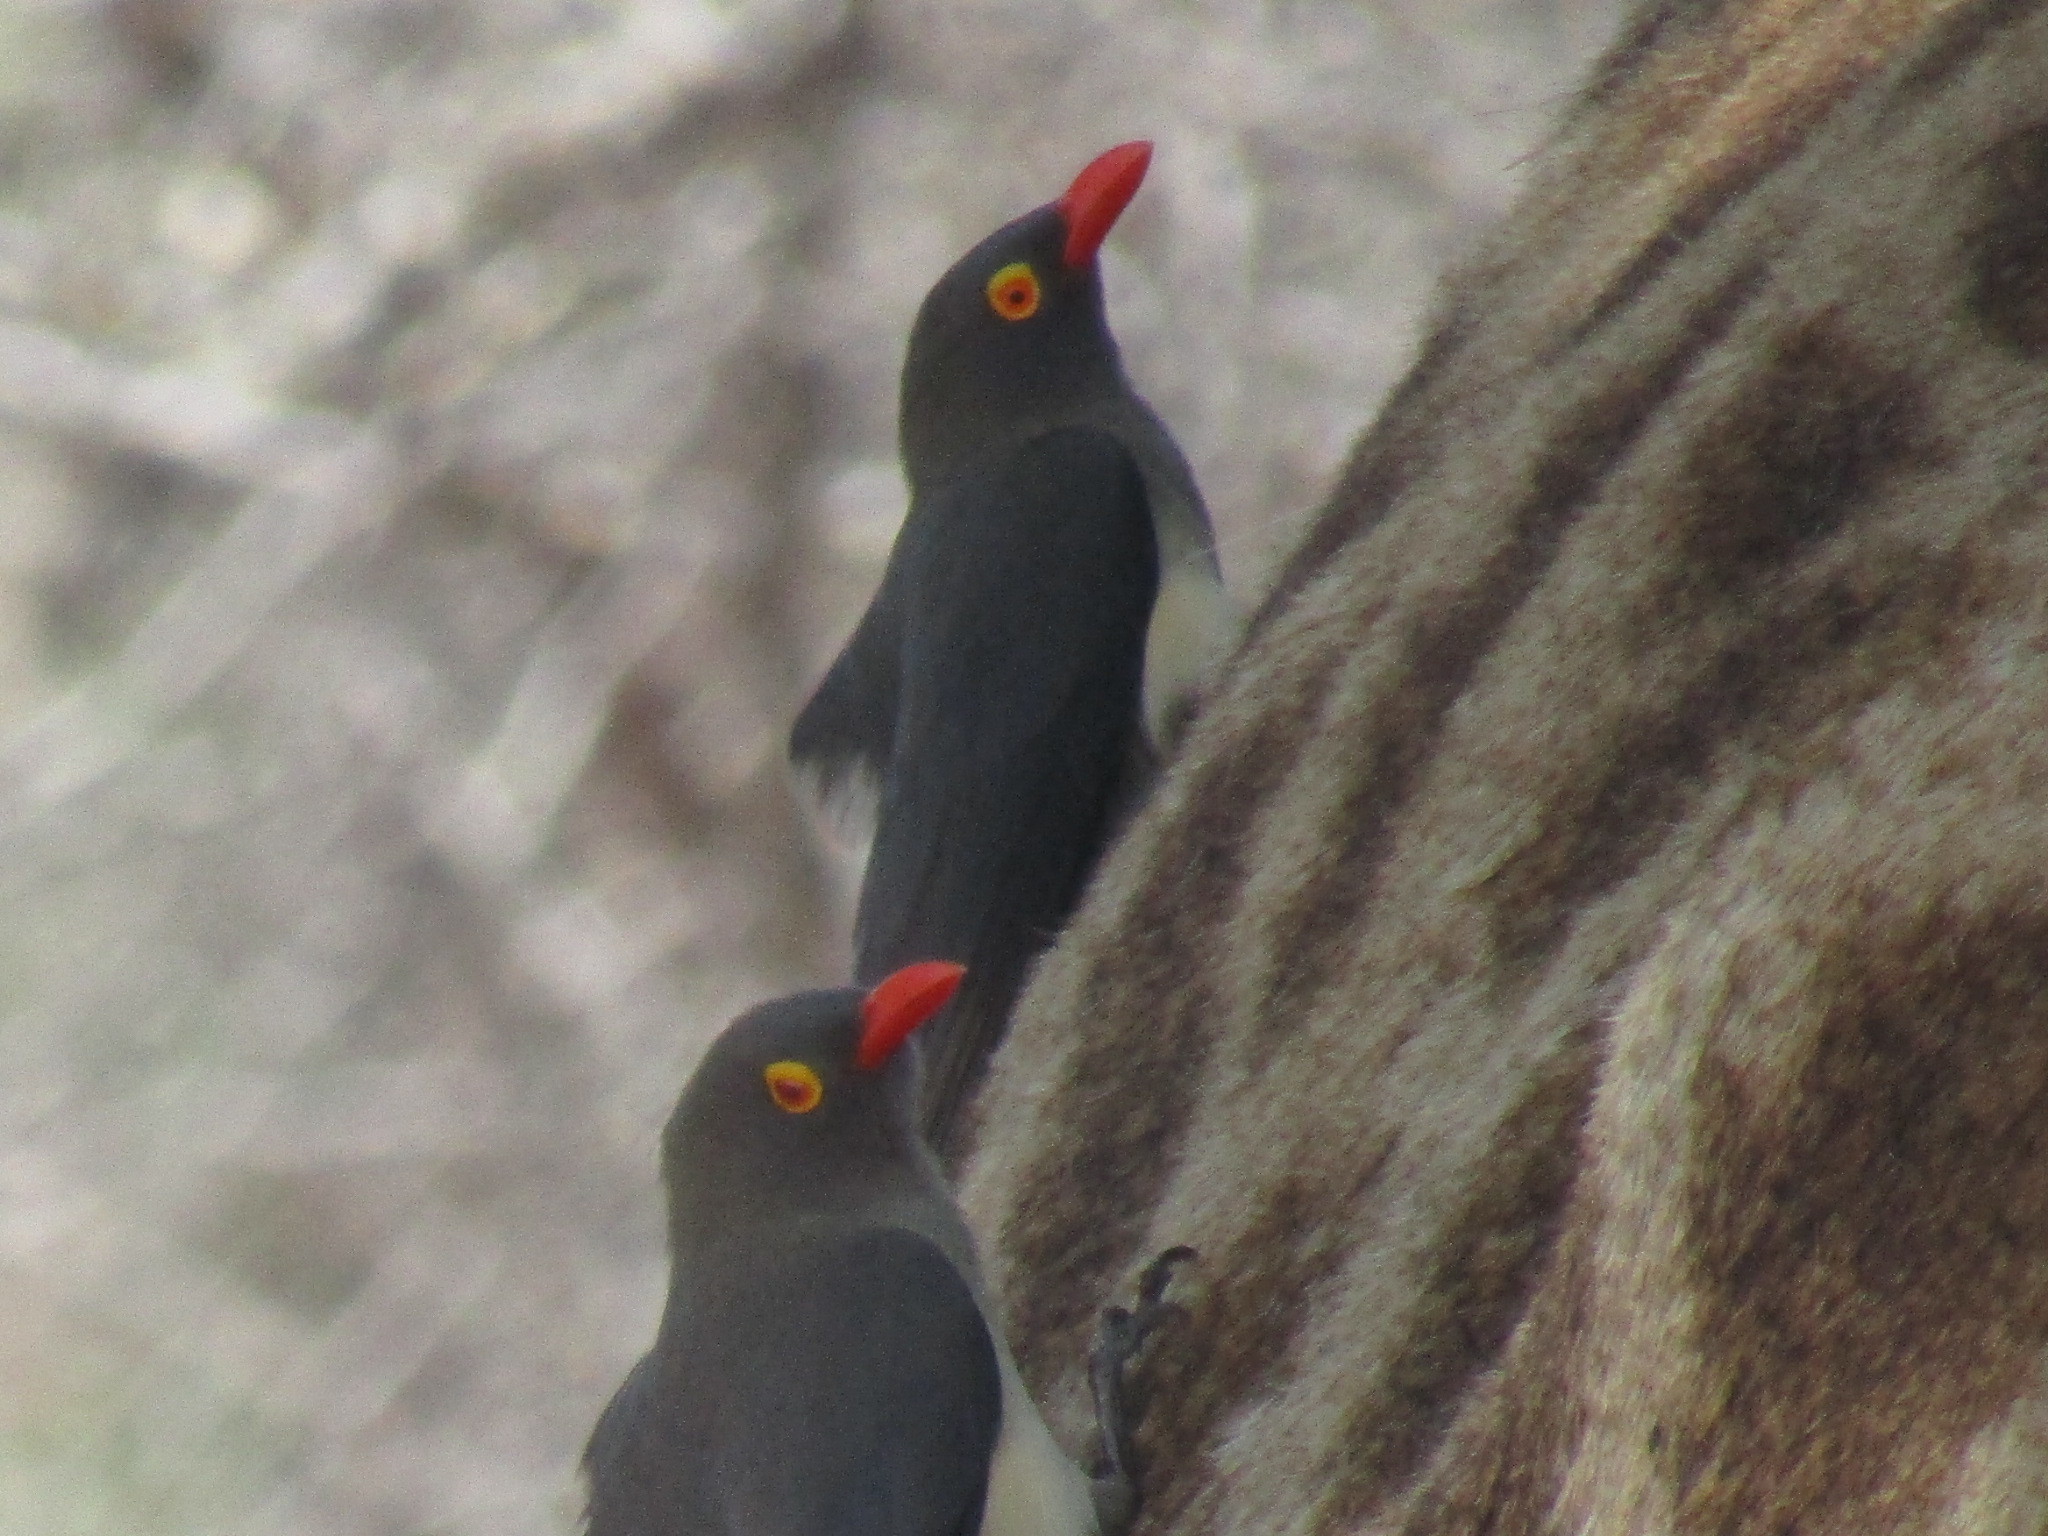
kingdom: Animalia
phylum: Chordata
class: Aves
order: Passeriformes
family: Buphagidae
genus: Buphagus
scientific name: Buphagus erythrorhynchus
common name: Red-billed oxpecker
